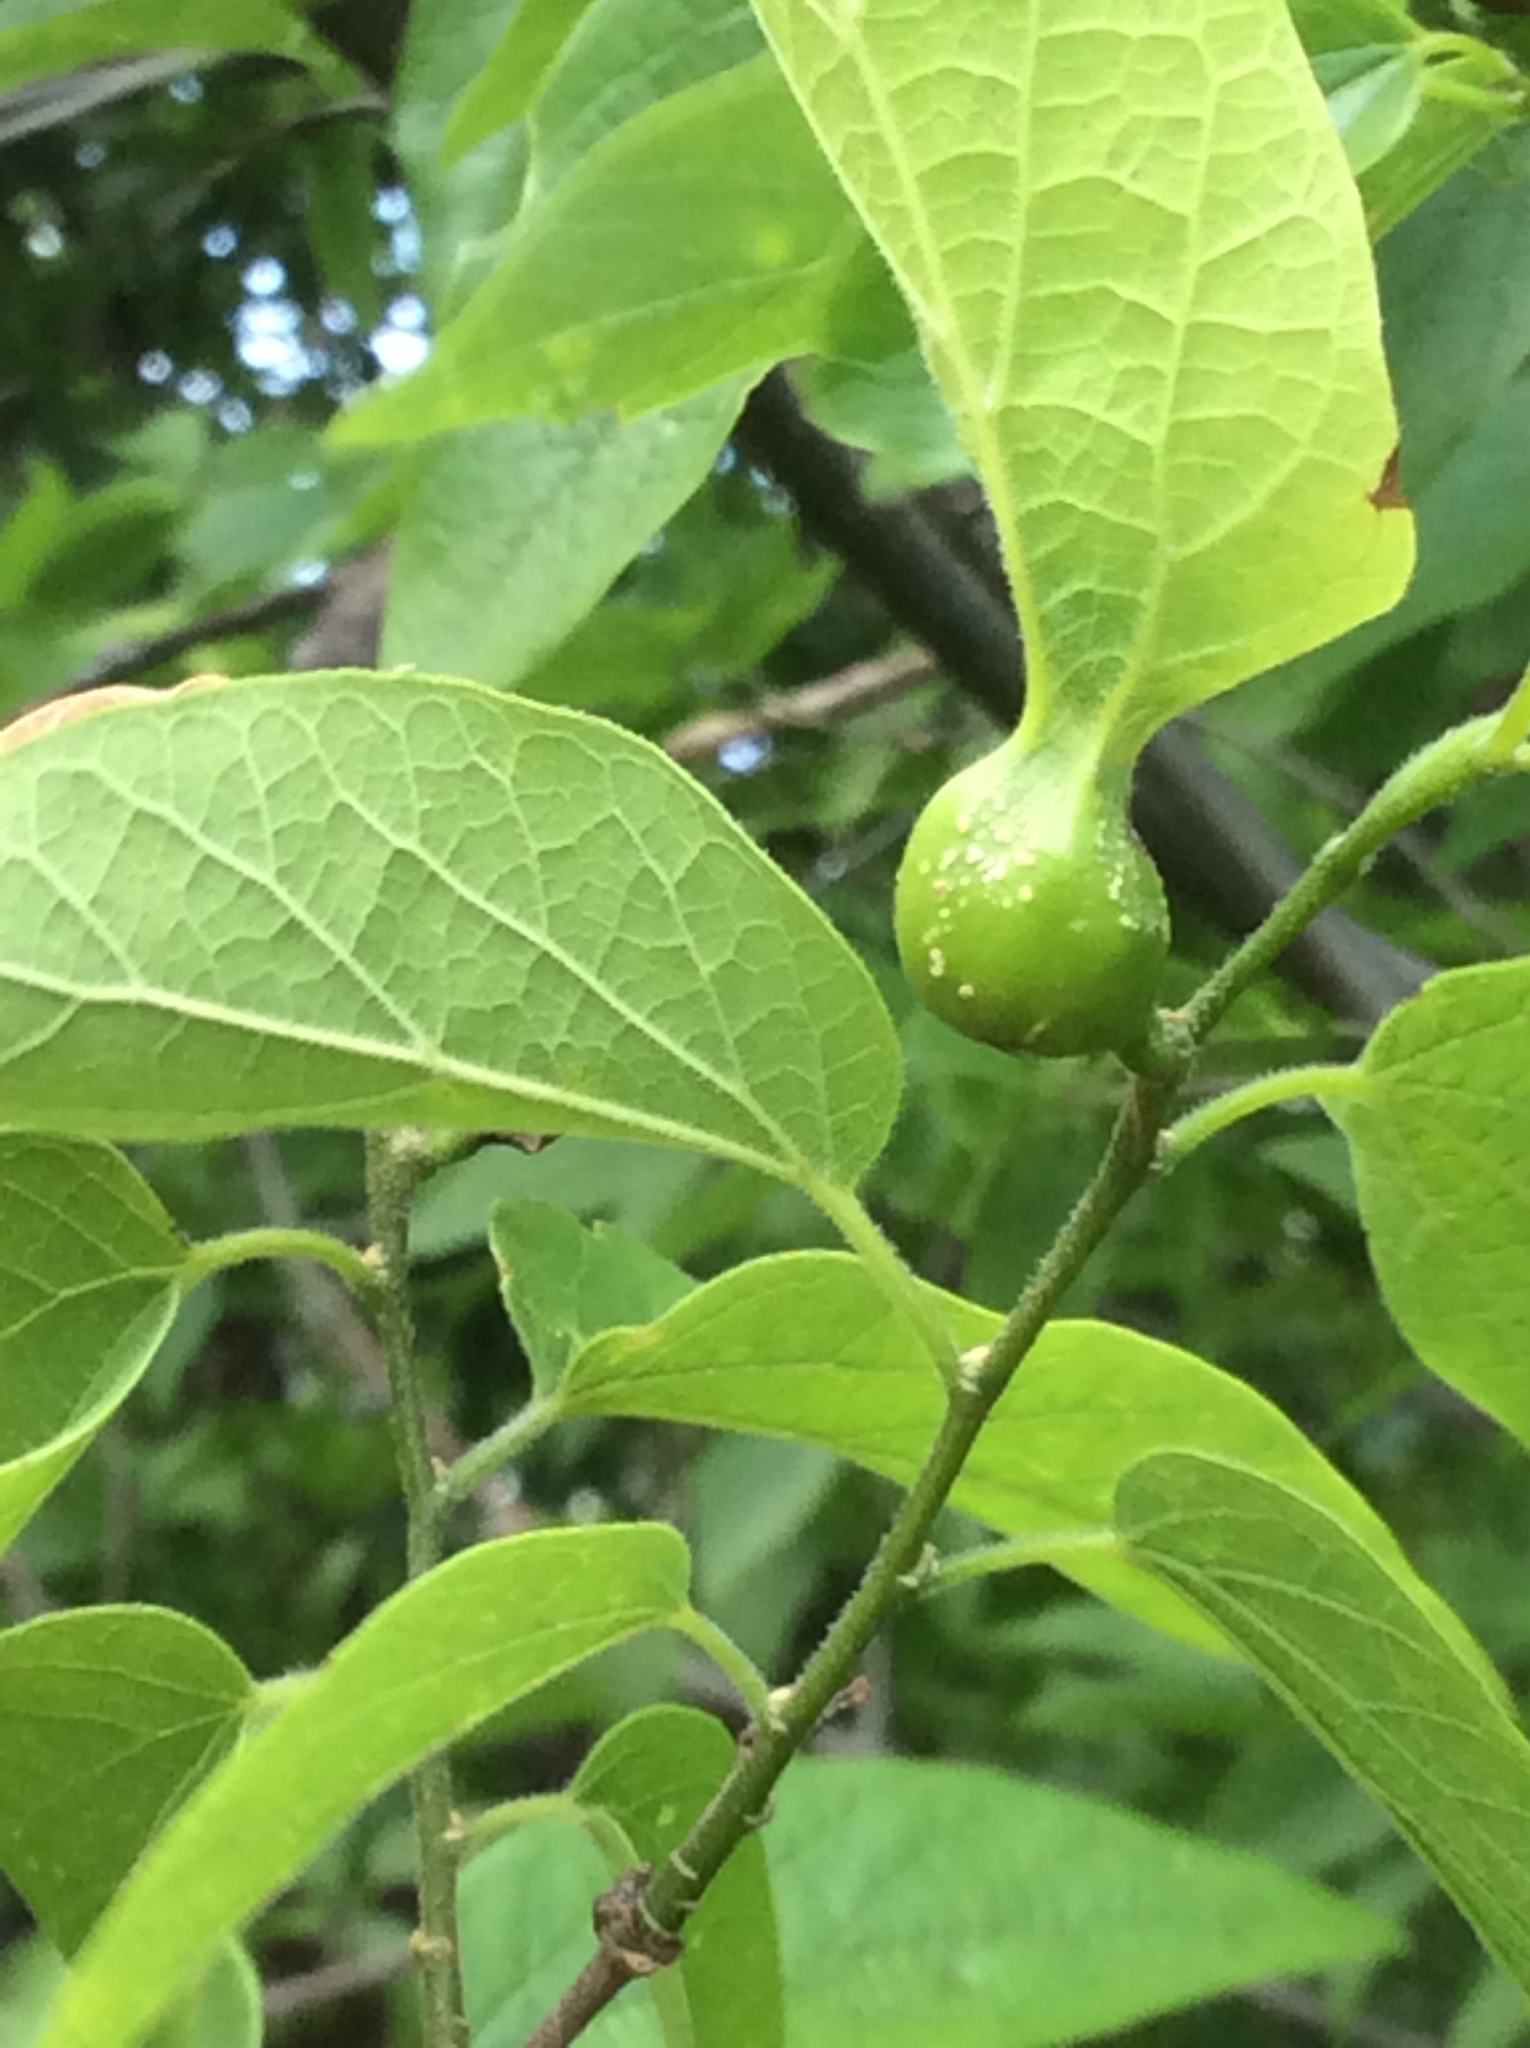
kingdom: Animalia
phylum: Arthropoda
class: Insecta
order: Hemiptera
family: Aphalaridae
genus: Pachypsylla
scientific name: Pachypsylla venusta
